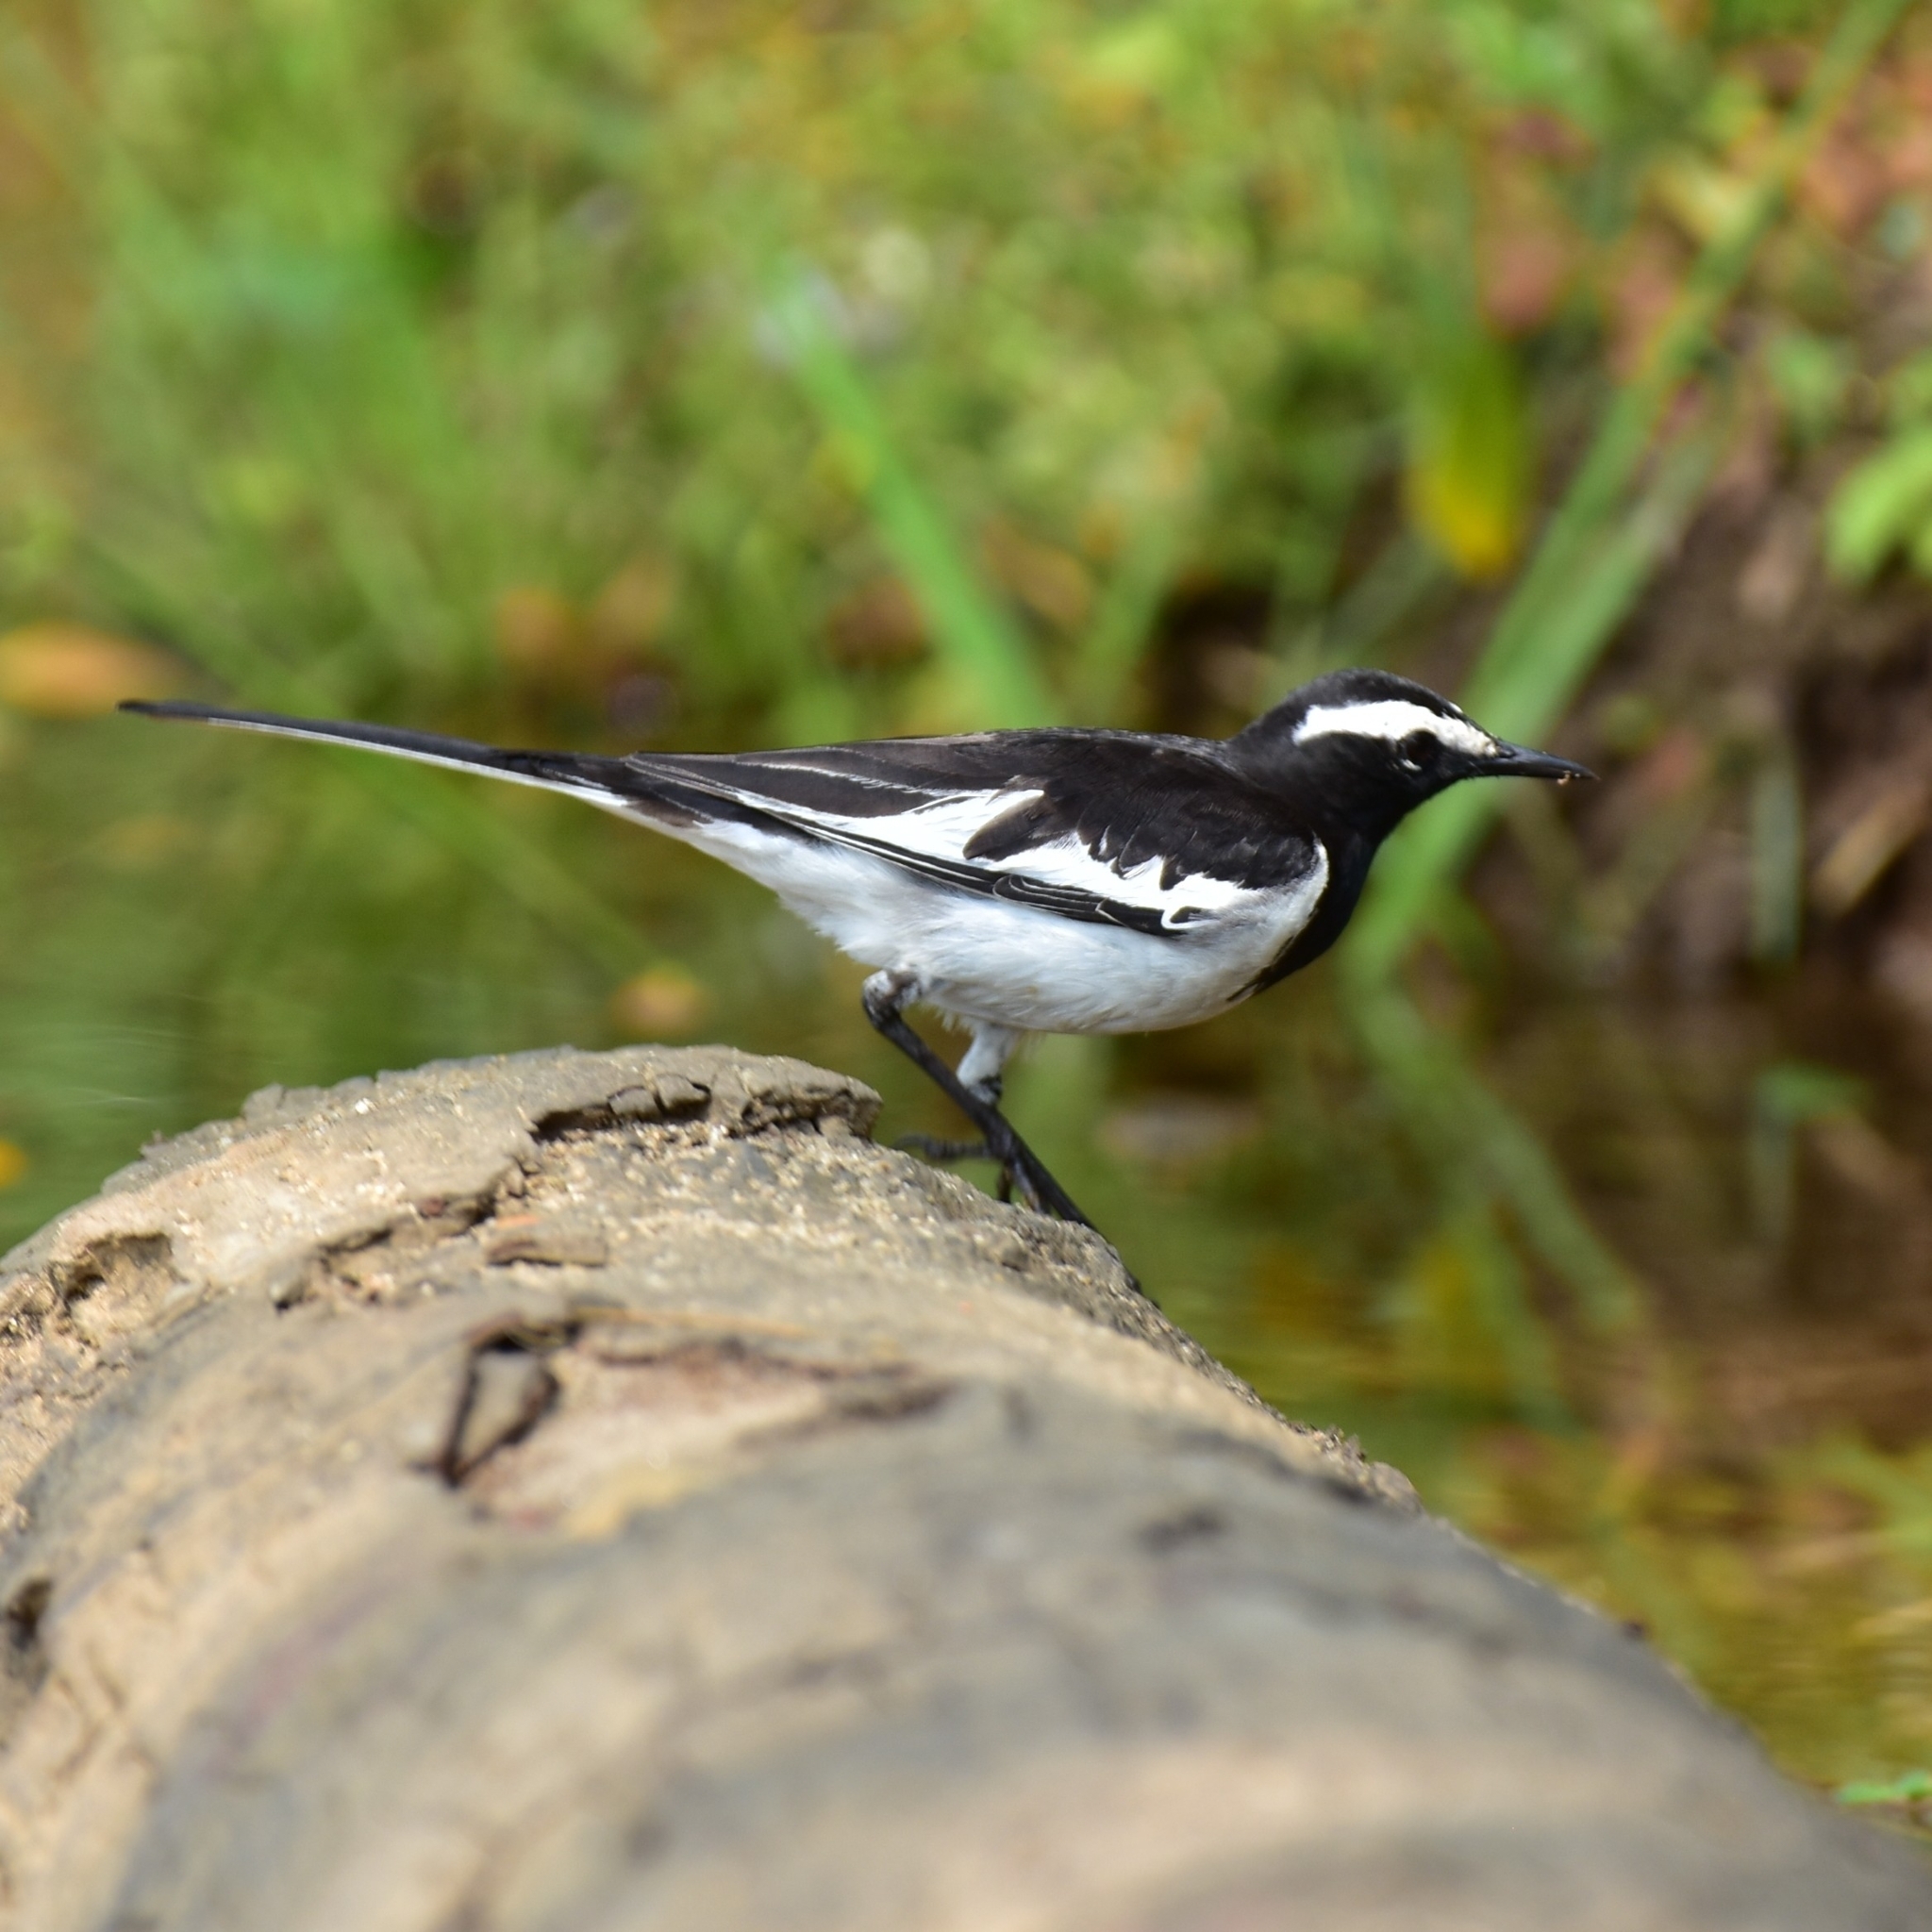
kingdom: Animalia
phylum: Chordata
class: Aves
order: Passeriformes
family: Motacillidae
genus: Motacilla
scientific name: Motacilla maderaspatensis
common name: White-browed wagtail
